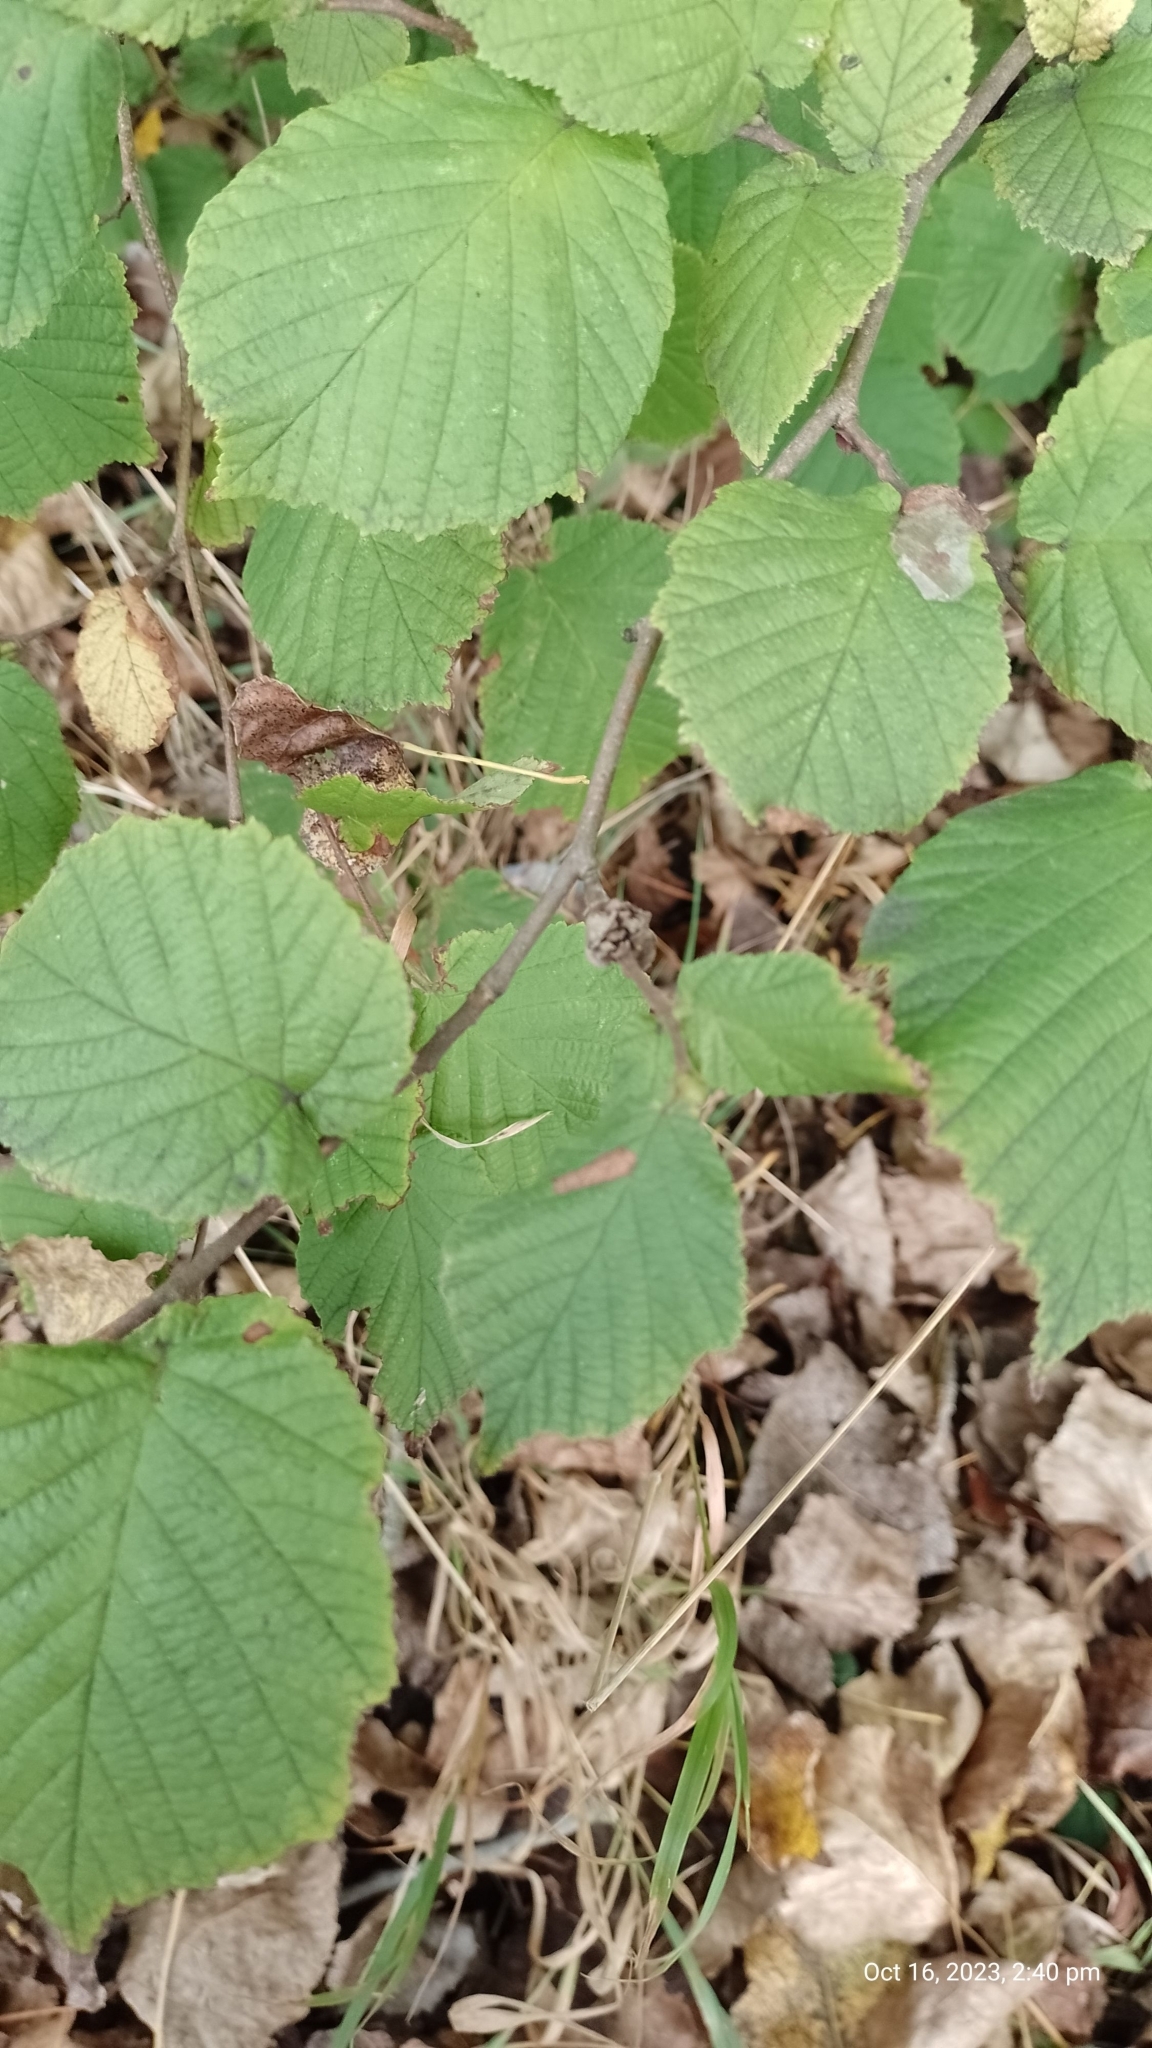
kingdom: Animalia
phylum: Arthropoda
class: Arachnida
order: Trombidiformes
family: Phytoptidae
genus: Phytoptus
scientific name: Phytoptus avellanae
